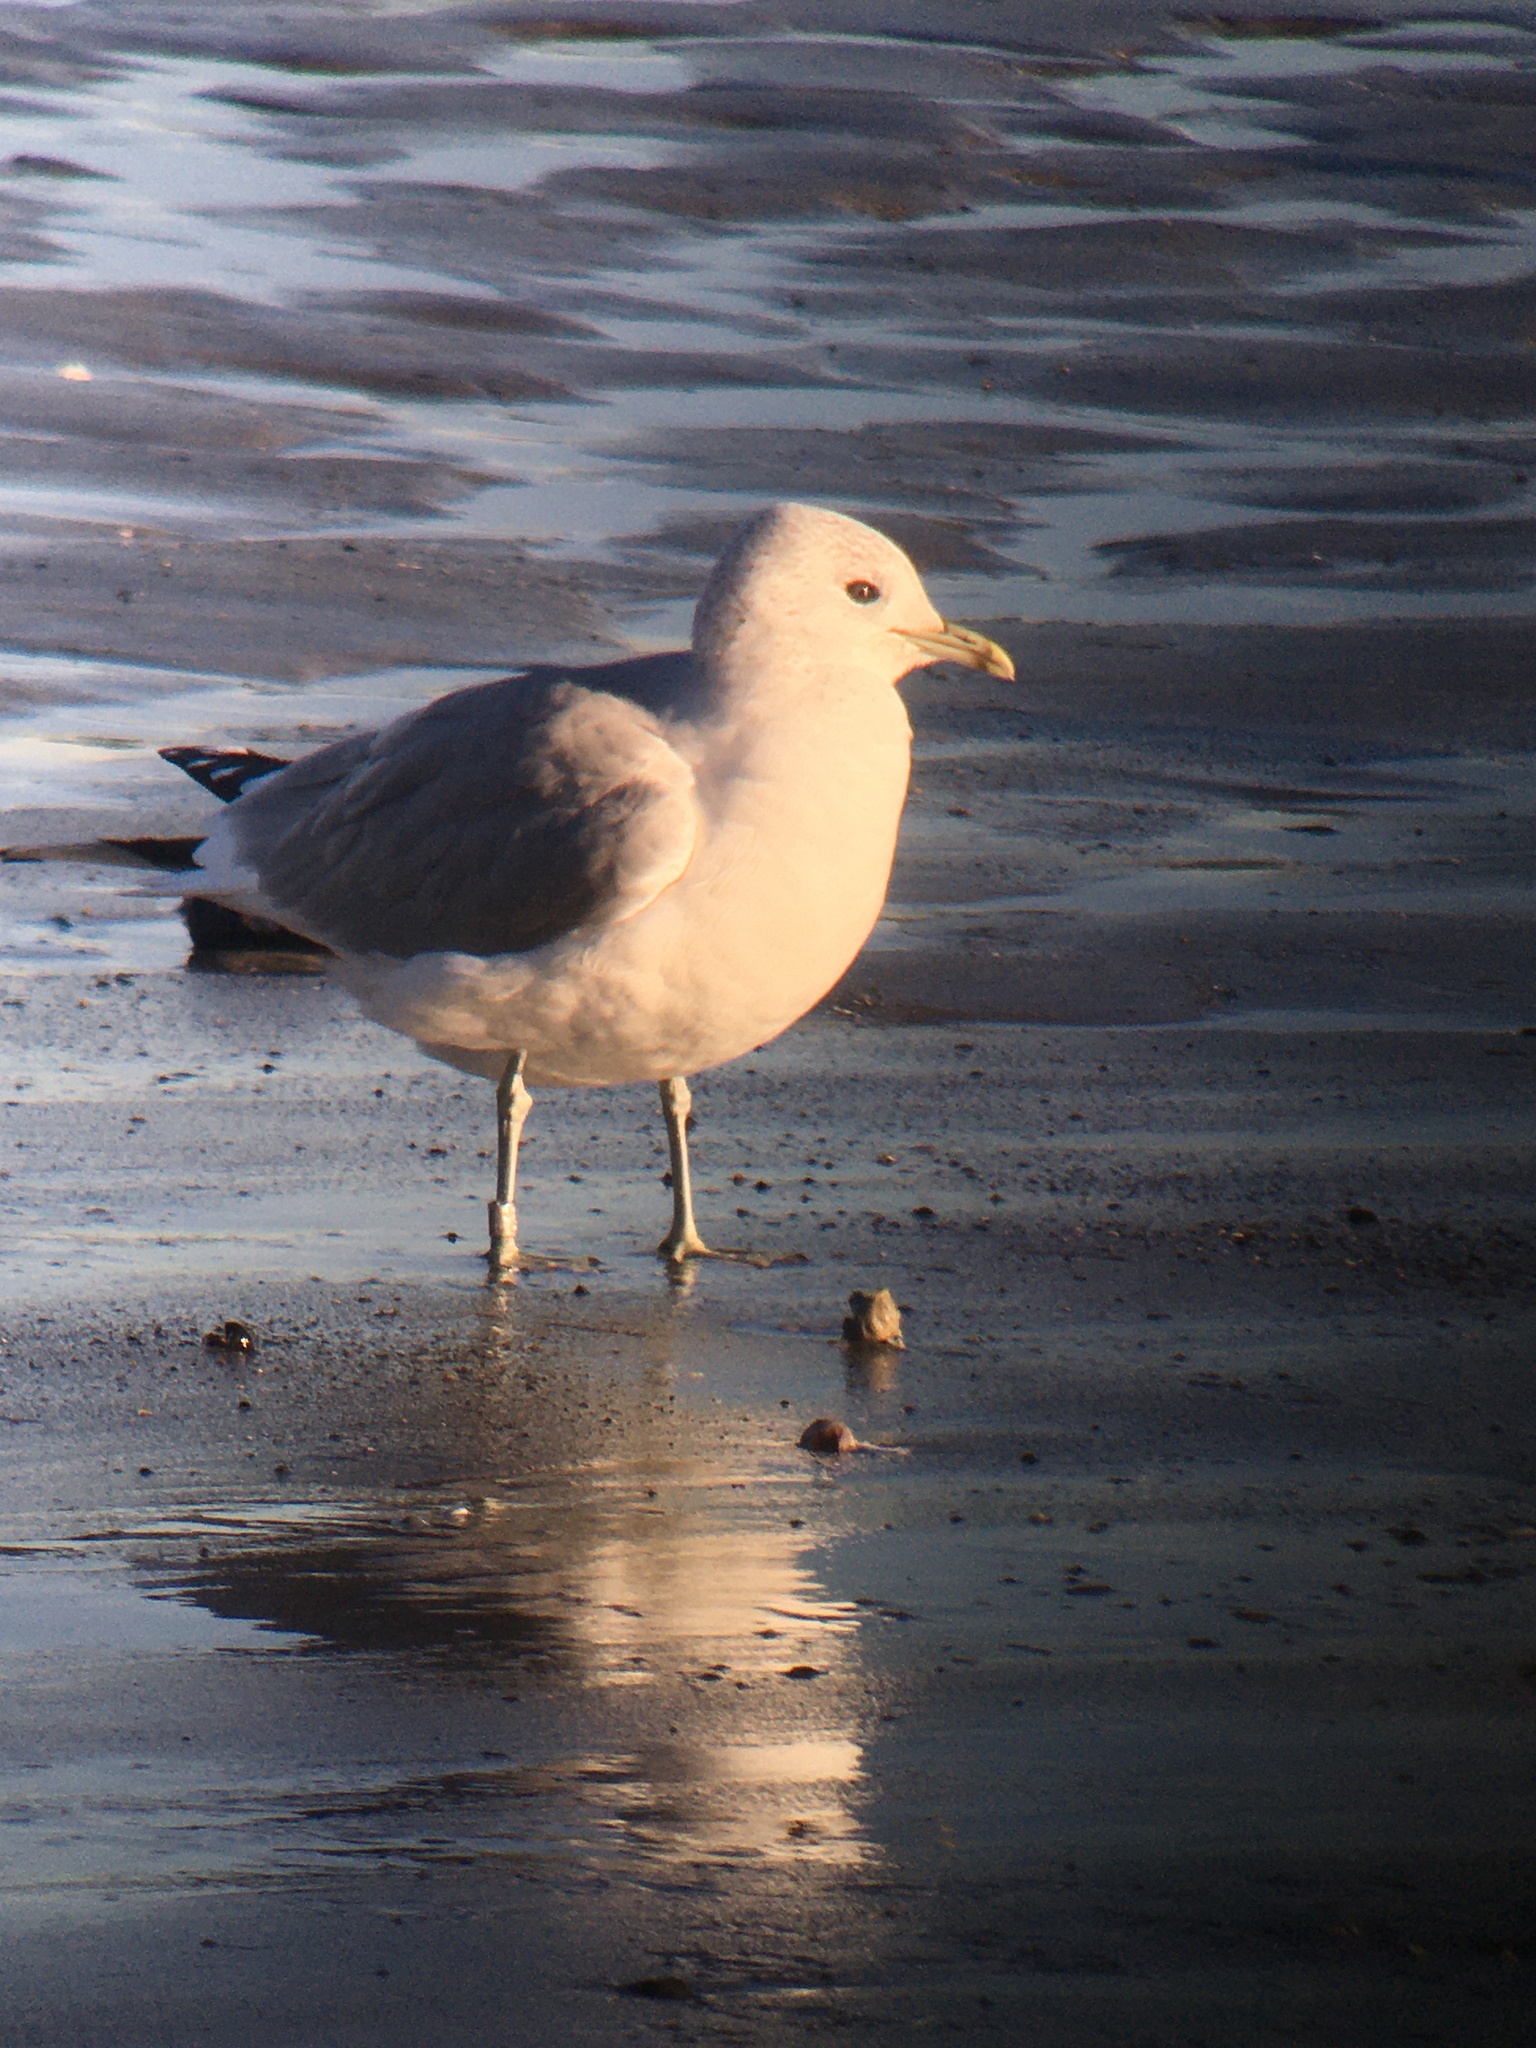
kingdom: Animalia
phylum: Chordata
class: Aves
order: Charadriiformes
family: Laridae
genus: Larus
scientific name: Larus canus
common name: Mew gull
